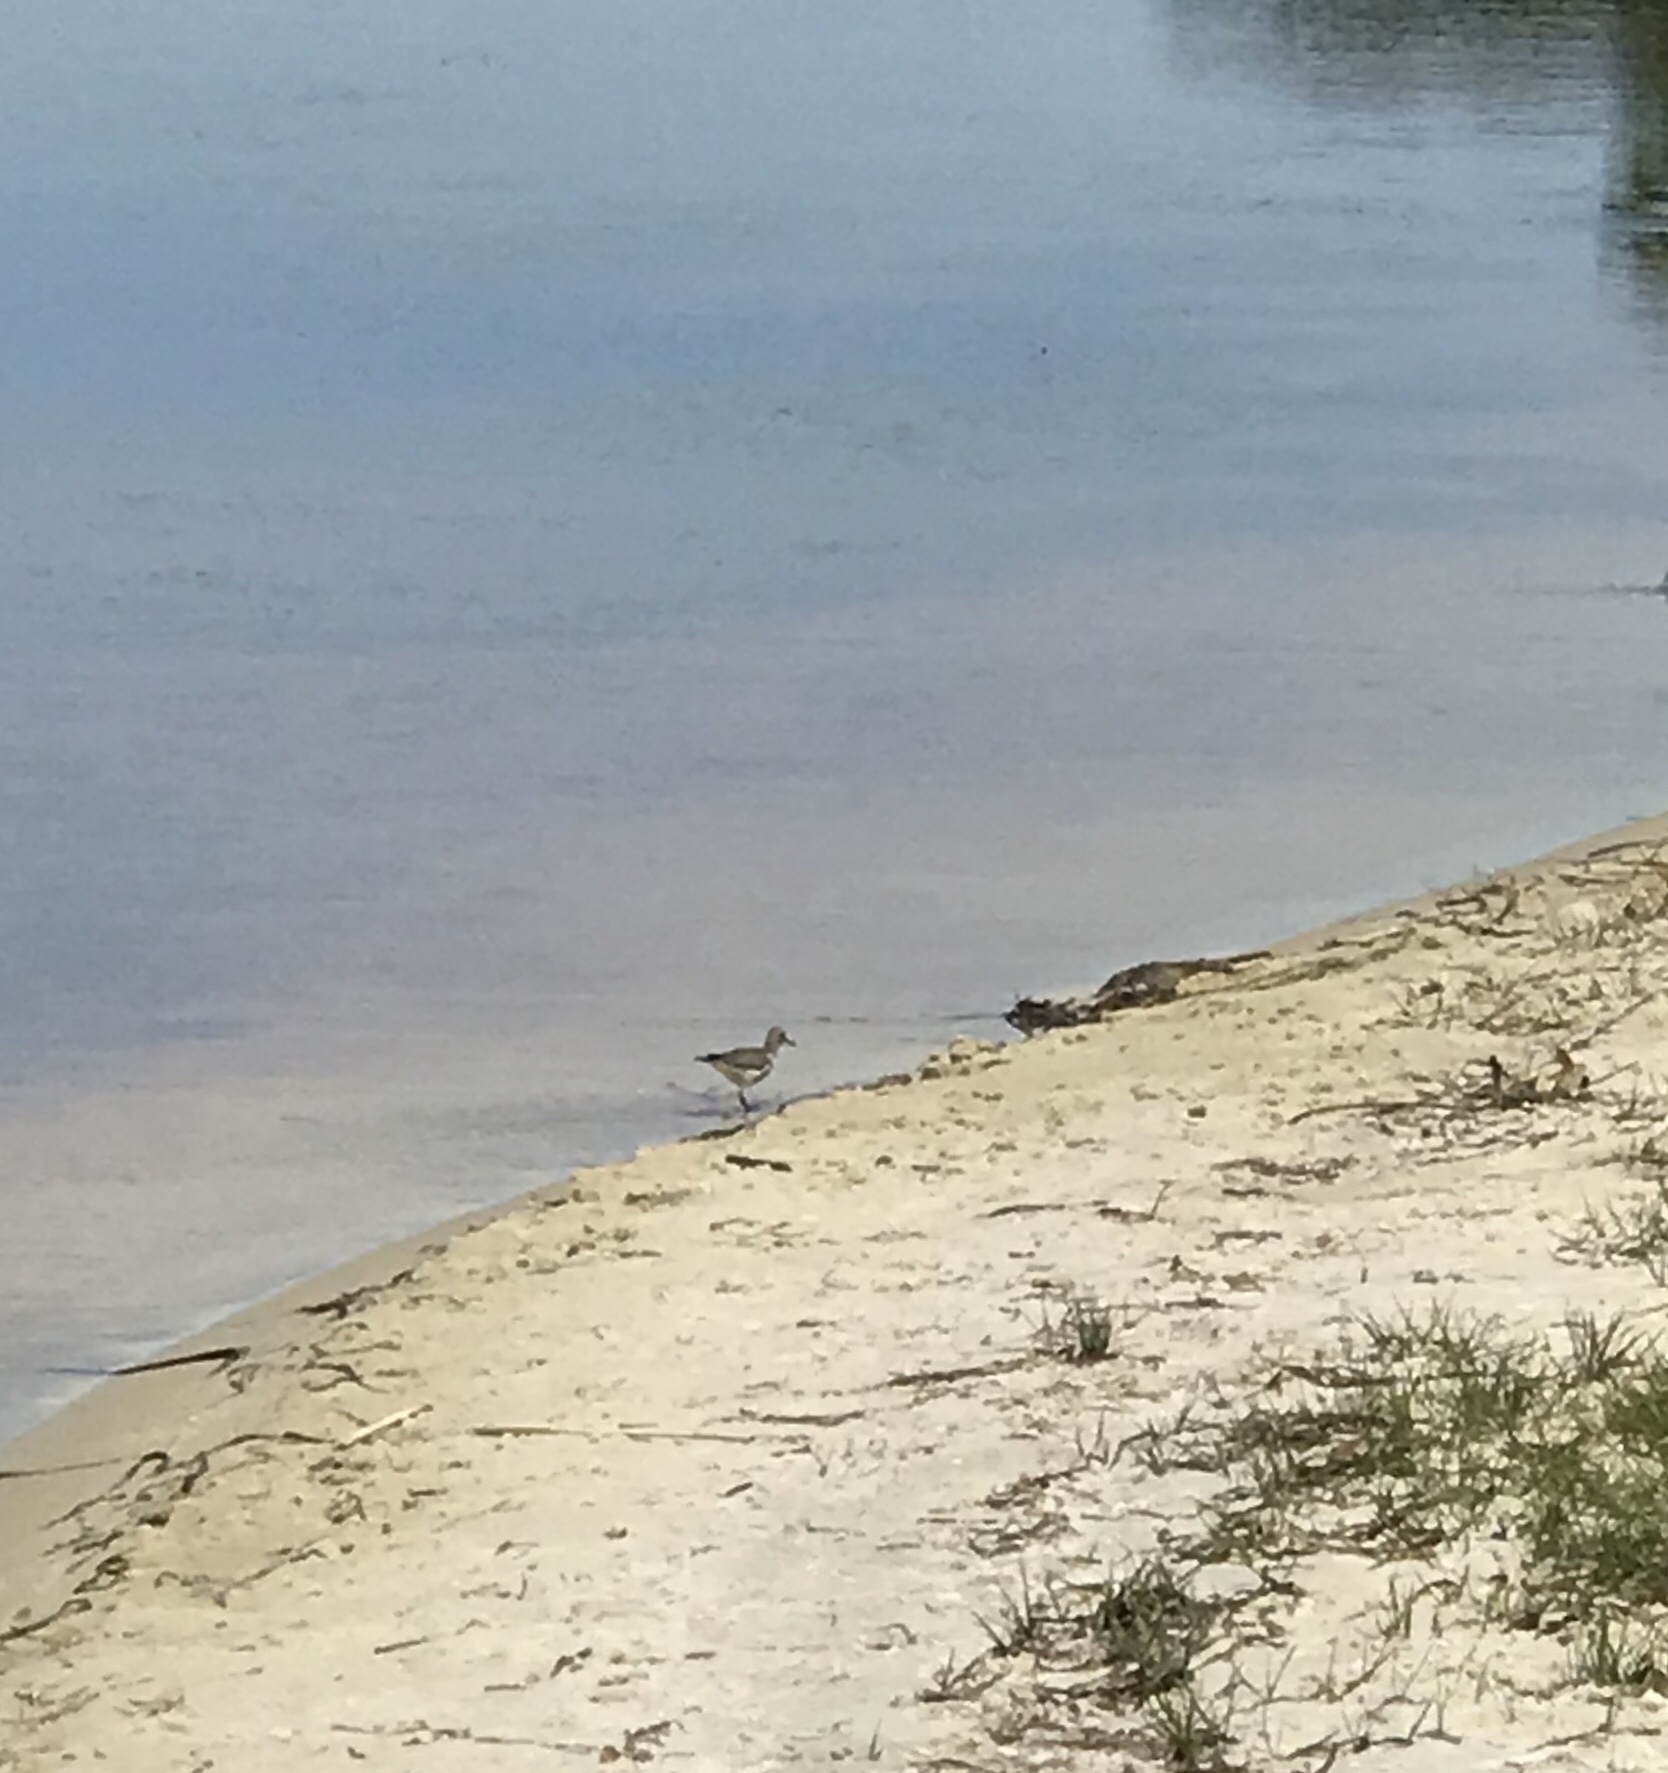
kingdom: Animalia
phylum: Chordata
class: Aves
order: Charadriiformes
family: Charadriidae
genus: Charadrius
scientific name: Charadrius vociferus
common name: Killdeer
